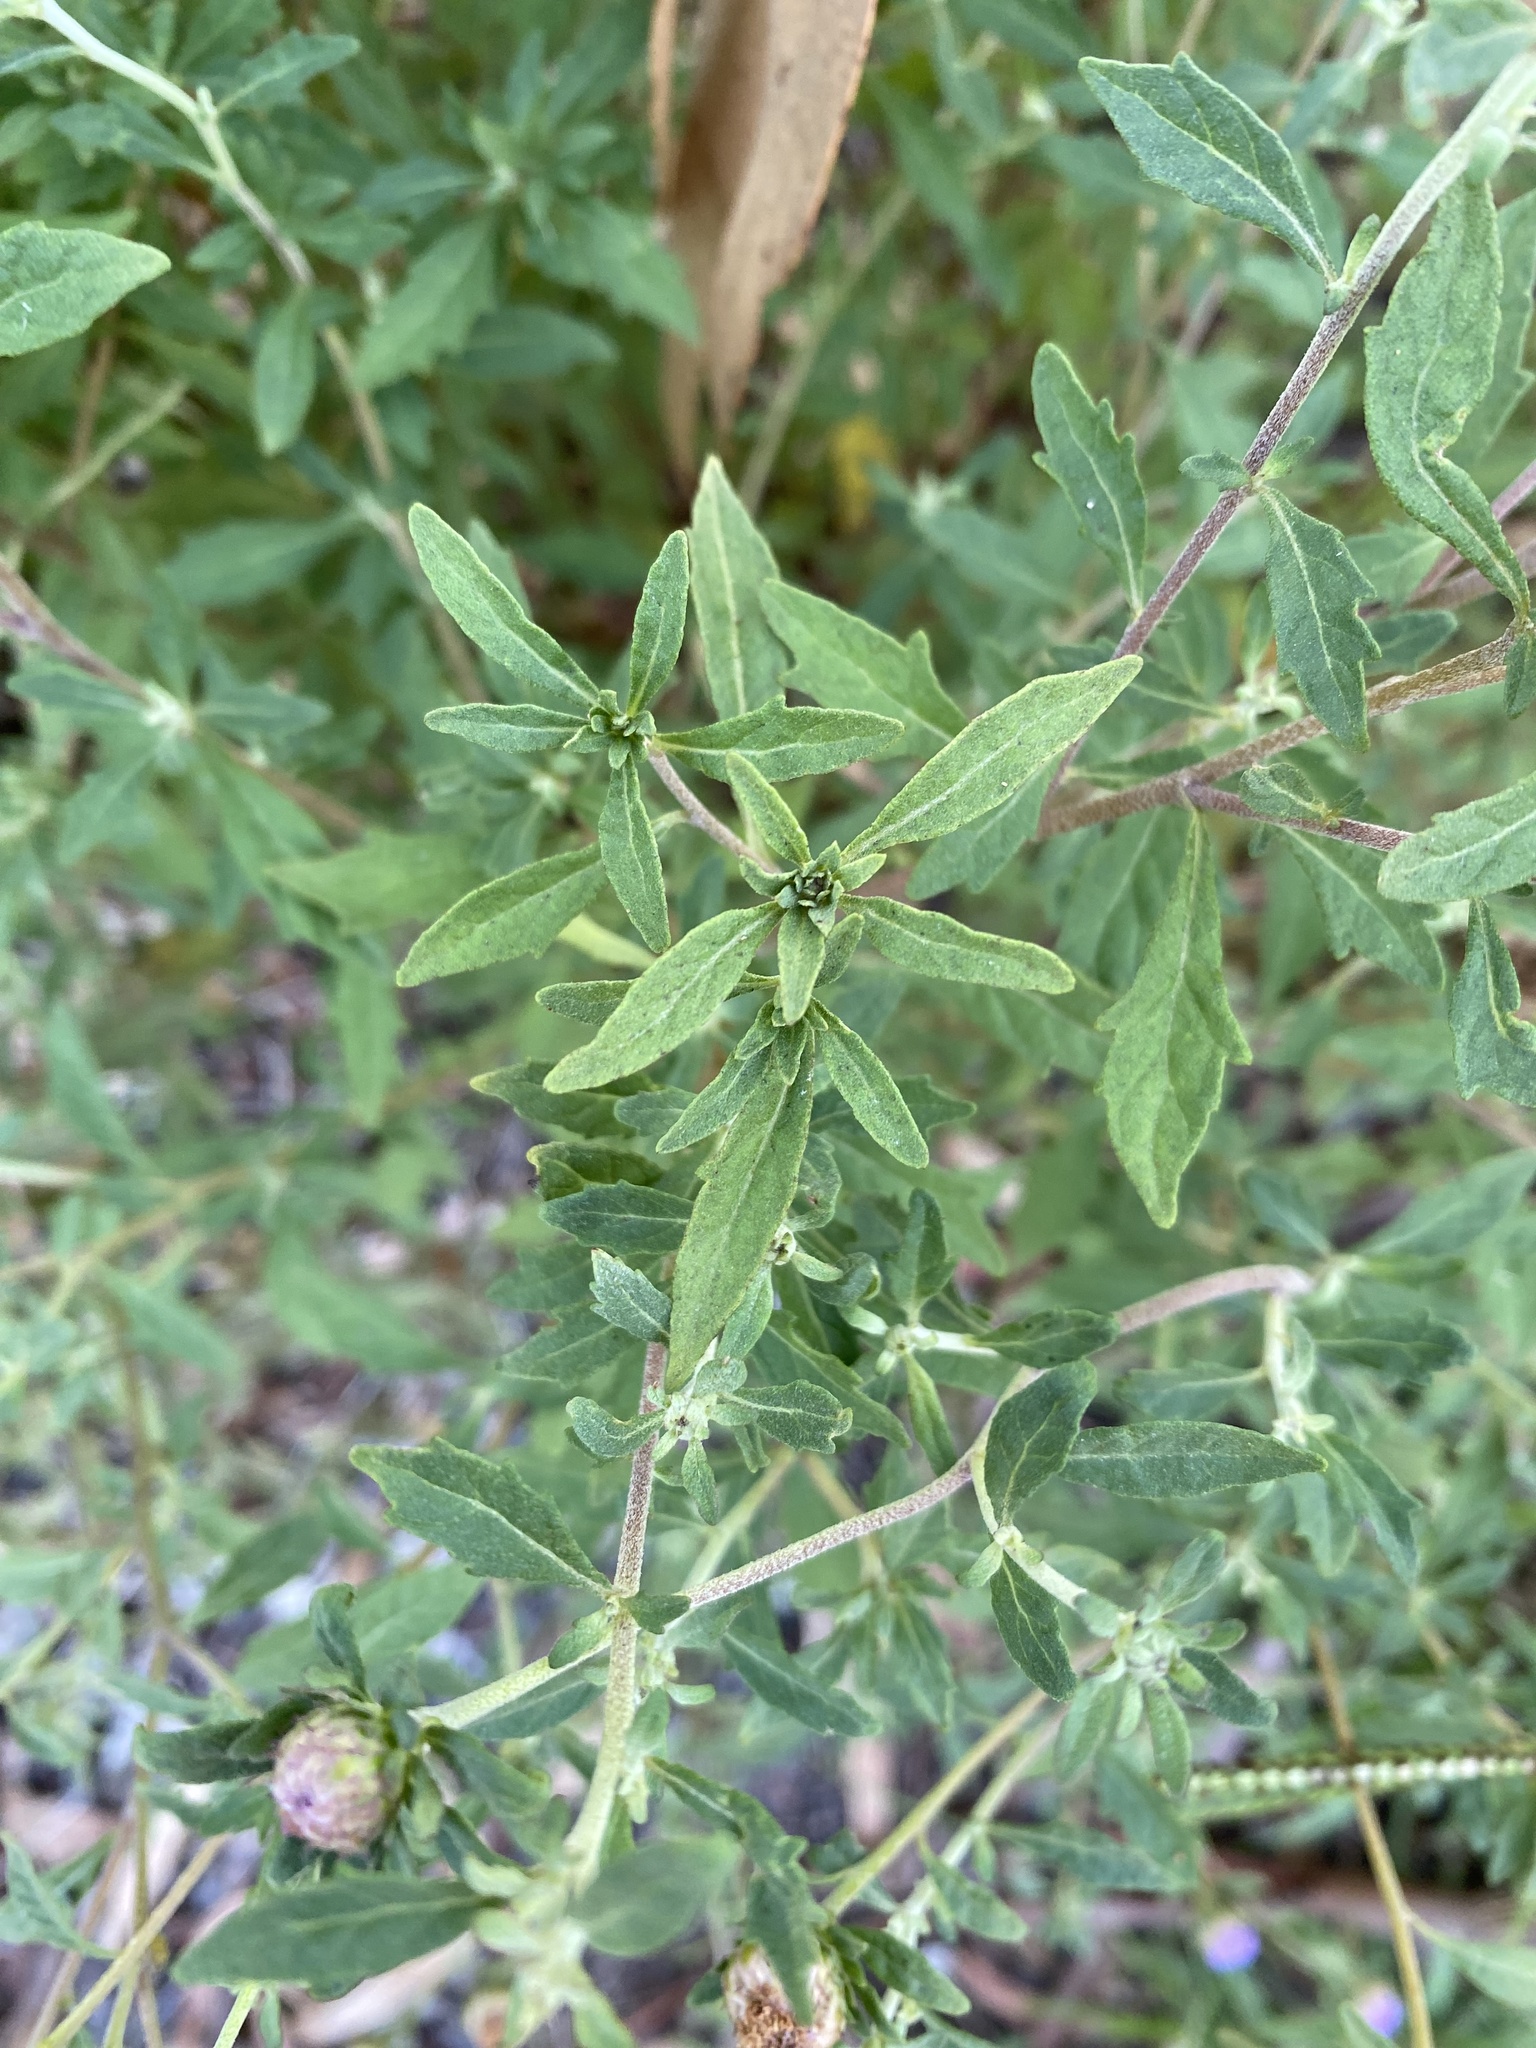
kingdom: Plantae
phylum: Tracheophyta
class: Magnoliopsida
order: Asterales
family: Asteraceae
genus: Centratherum
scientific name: Centratherum punctatum
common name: Larkdaisy
